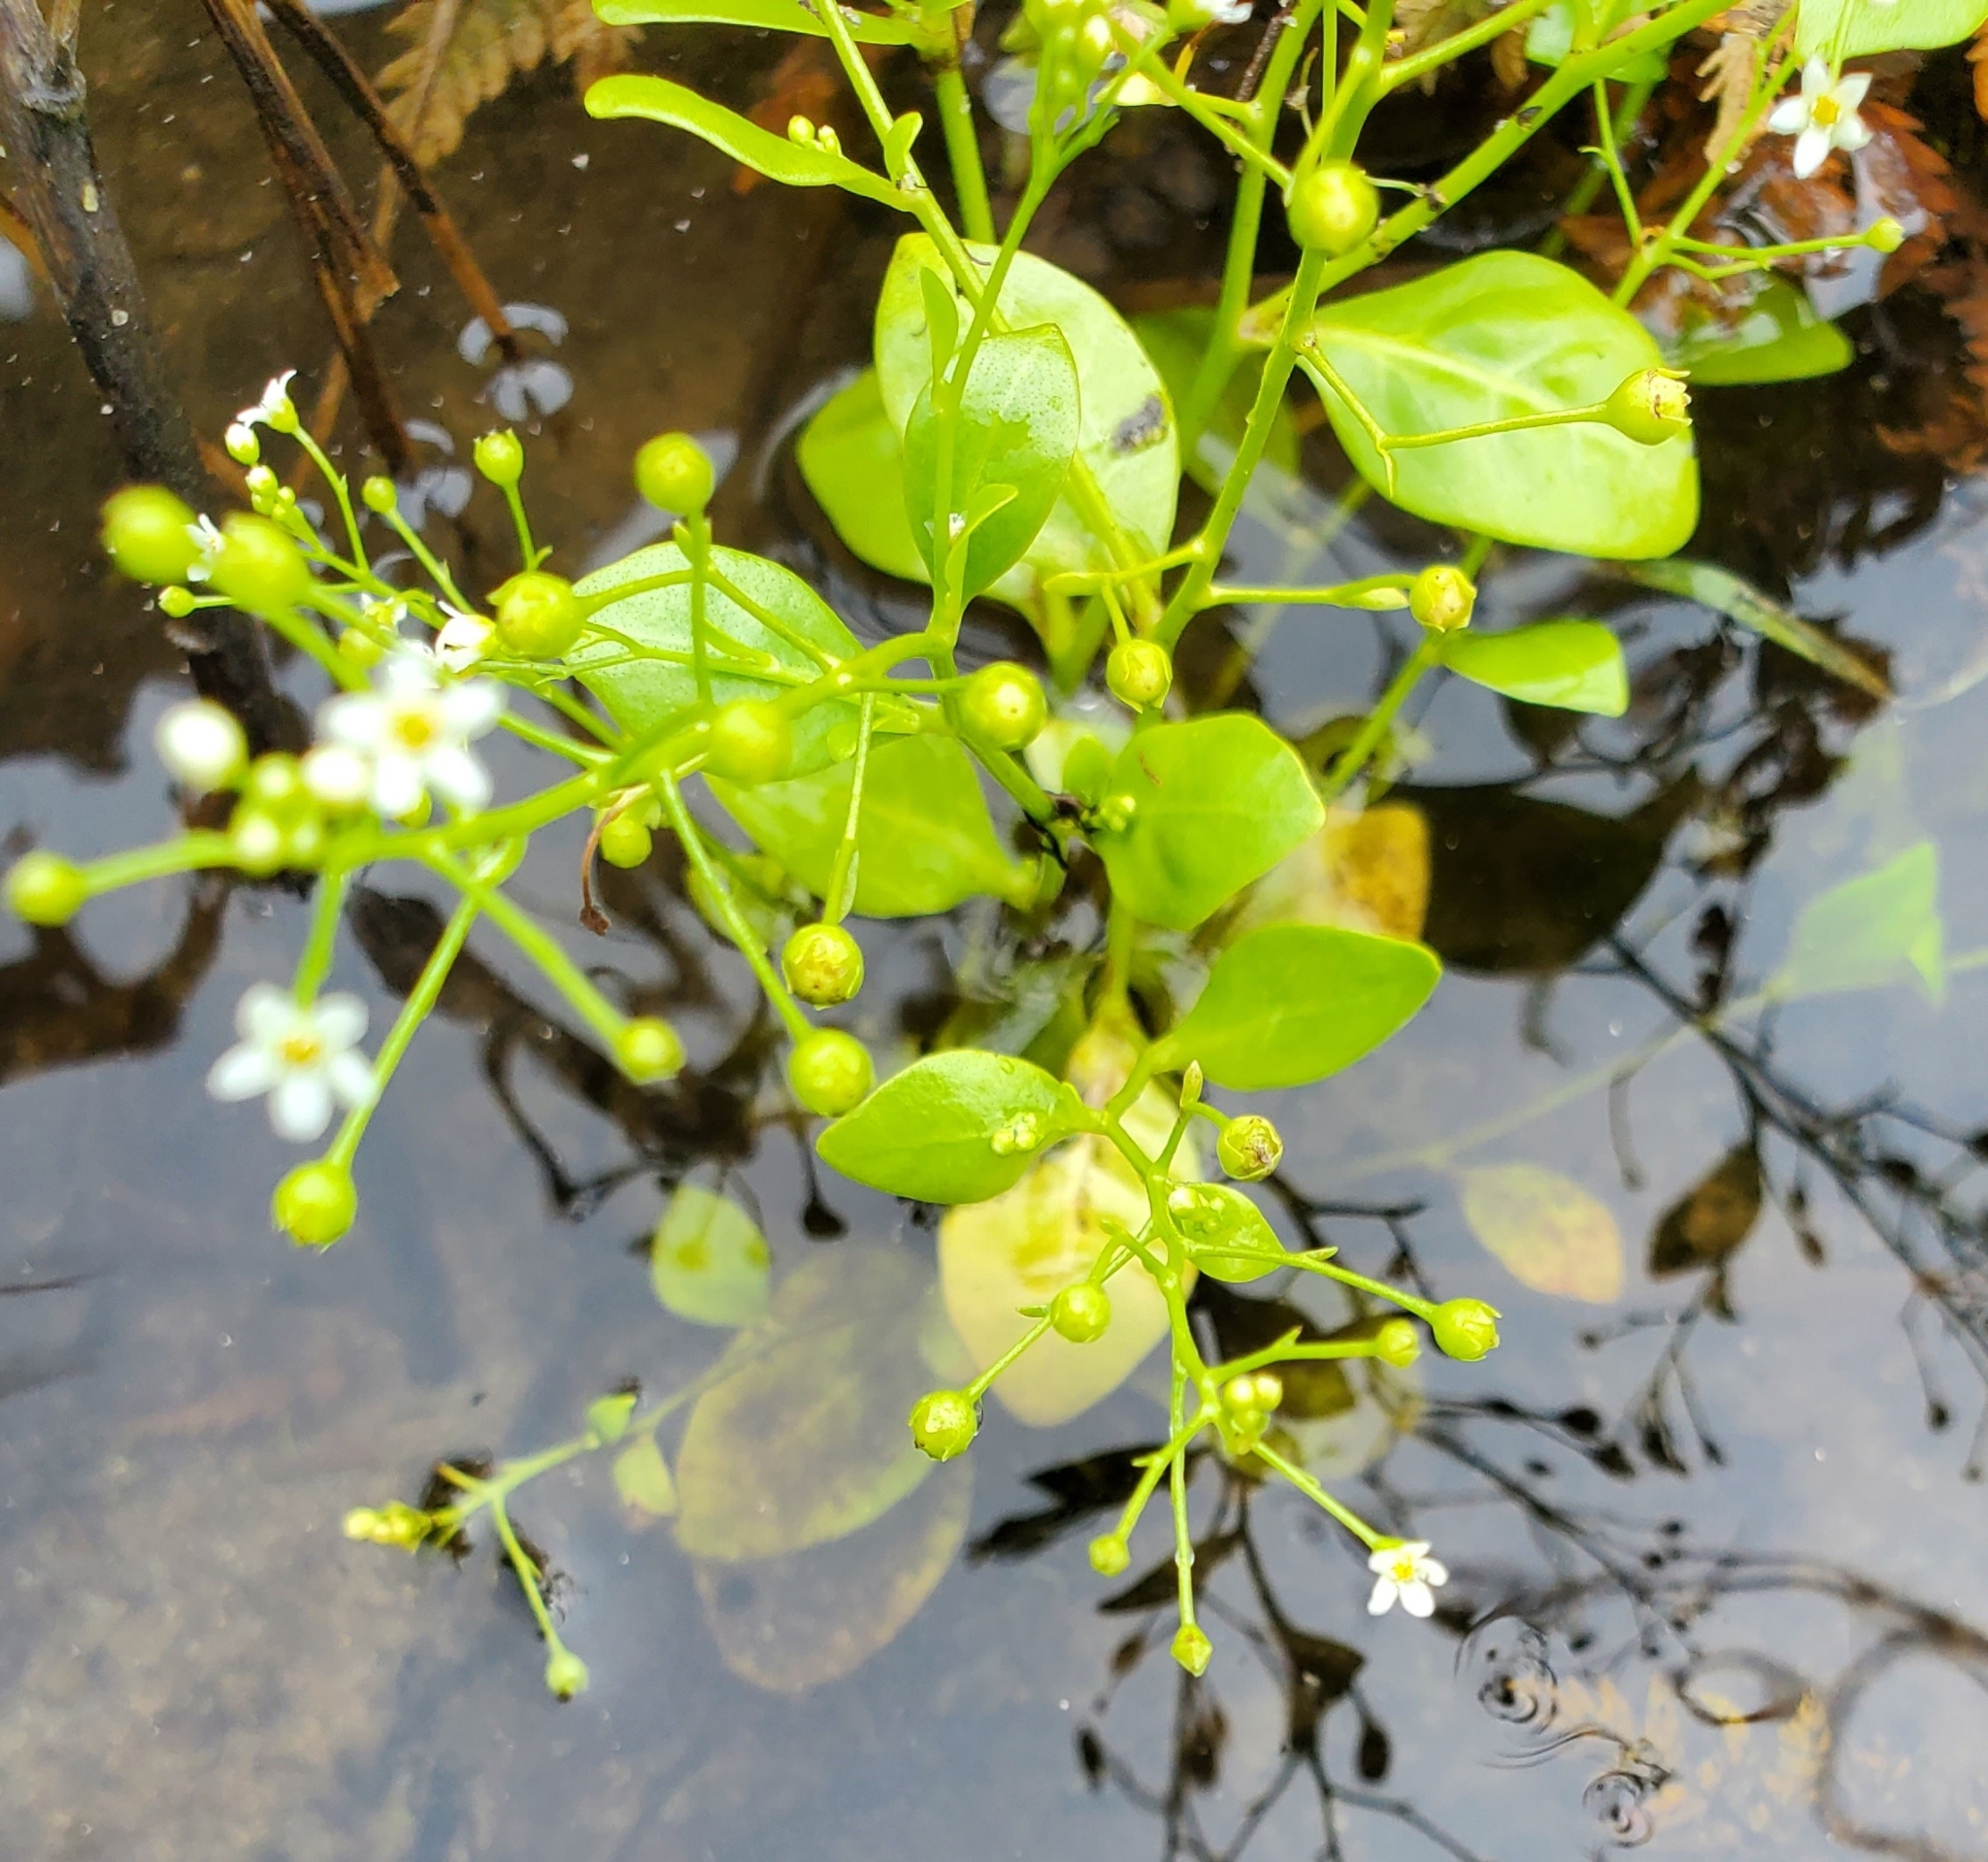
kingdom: Plantae
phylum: Tracheophyta
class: Magnoliopsida
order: Ericales
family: Primulaceae
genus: Samolus
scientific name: Samolus parviflorus
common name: False water pimpernel
